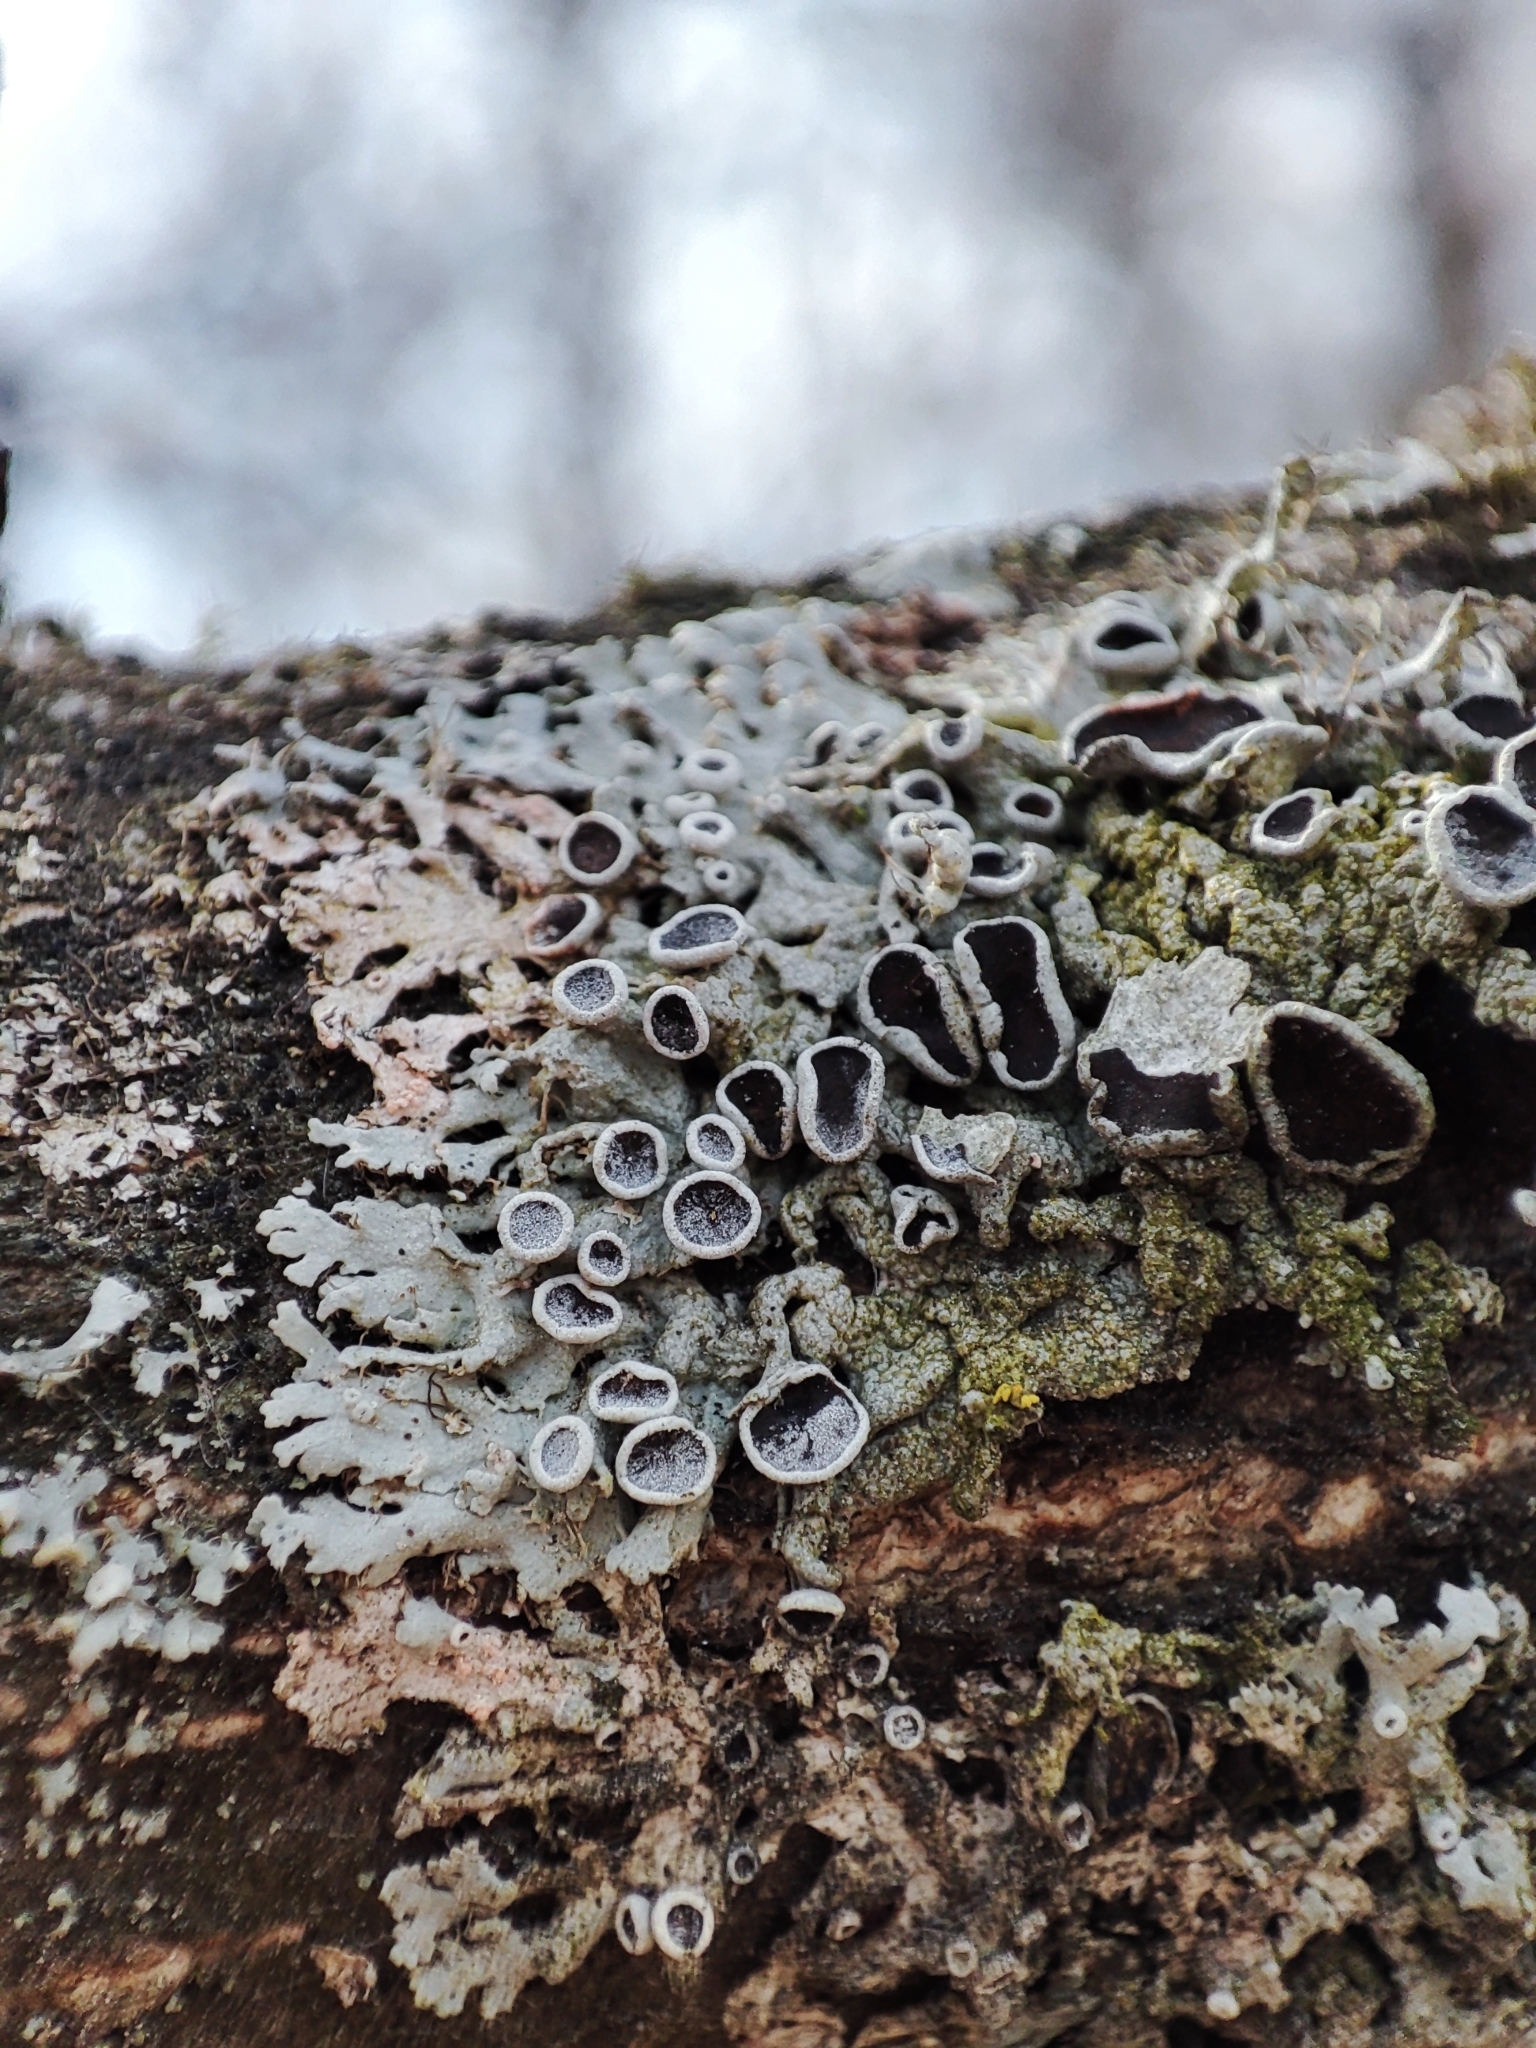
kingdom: Fungi
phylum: Ascomycota
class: Lecanoromycetes
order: Caliciales
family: Physciaceae
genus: Physcia
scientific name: Physcia aipolia
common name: Hoary rosette lichen
